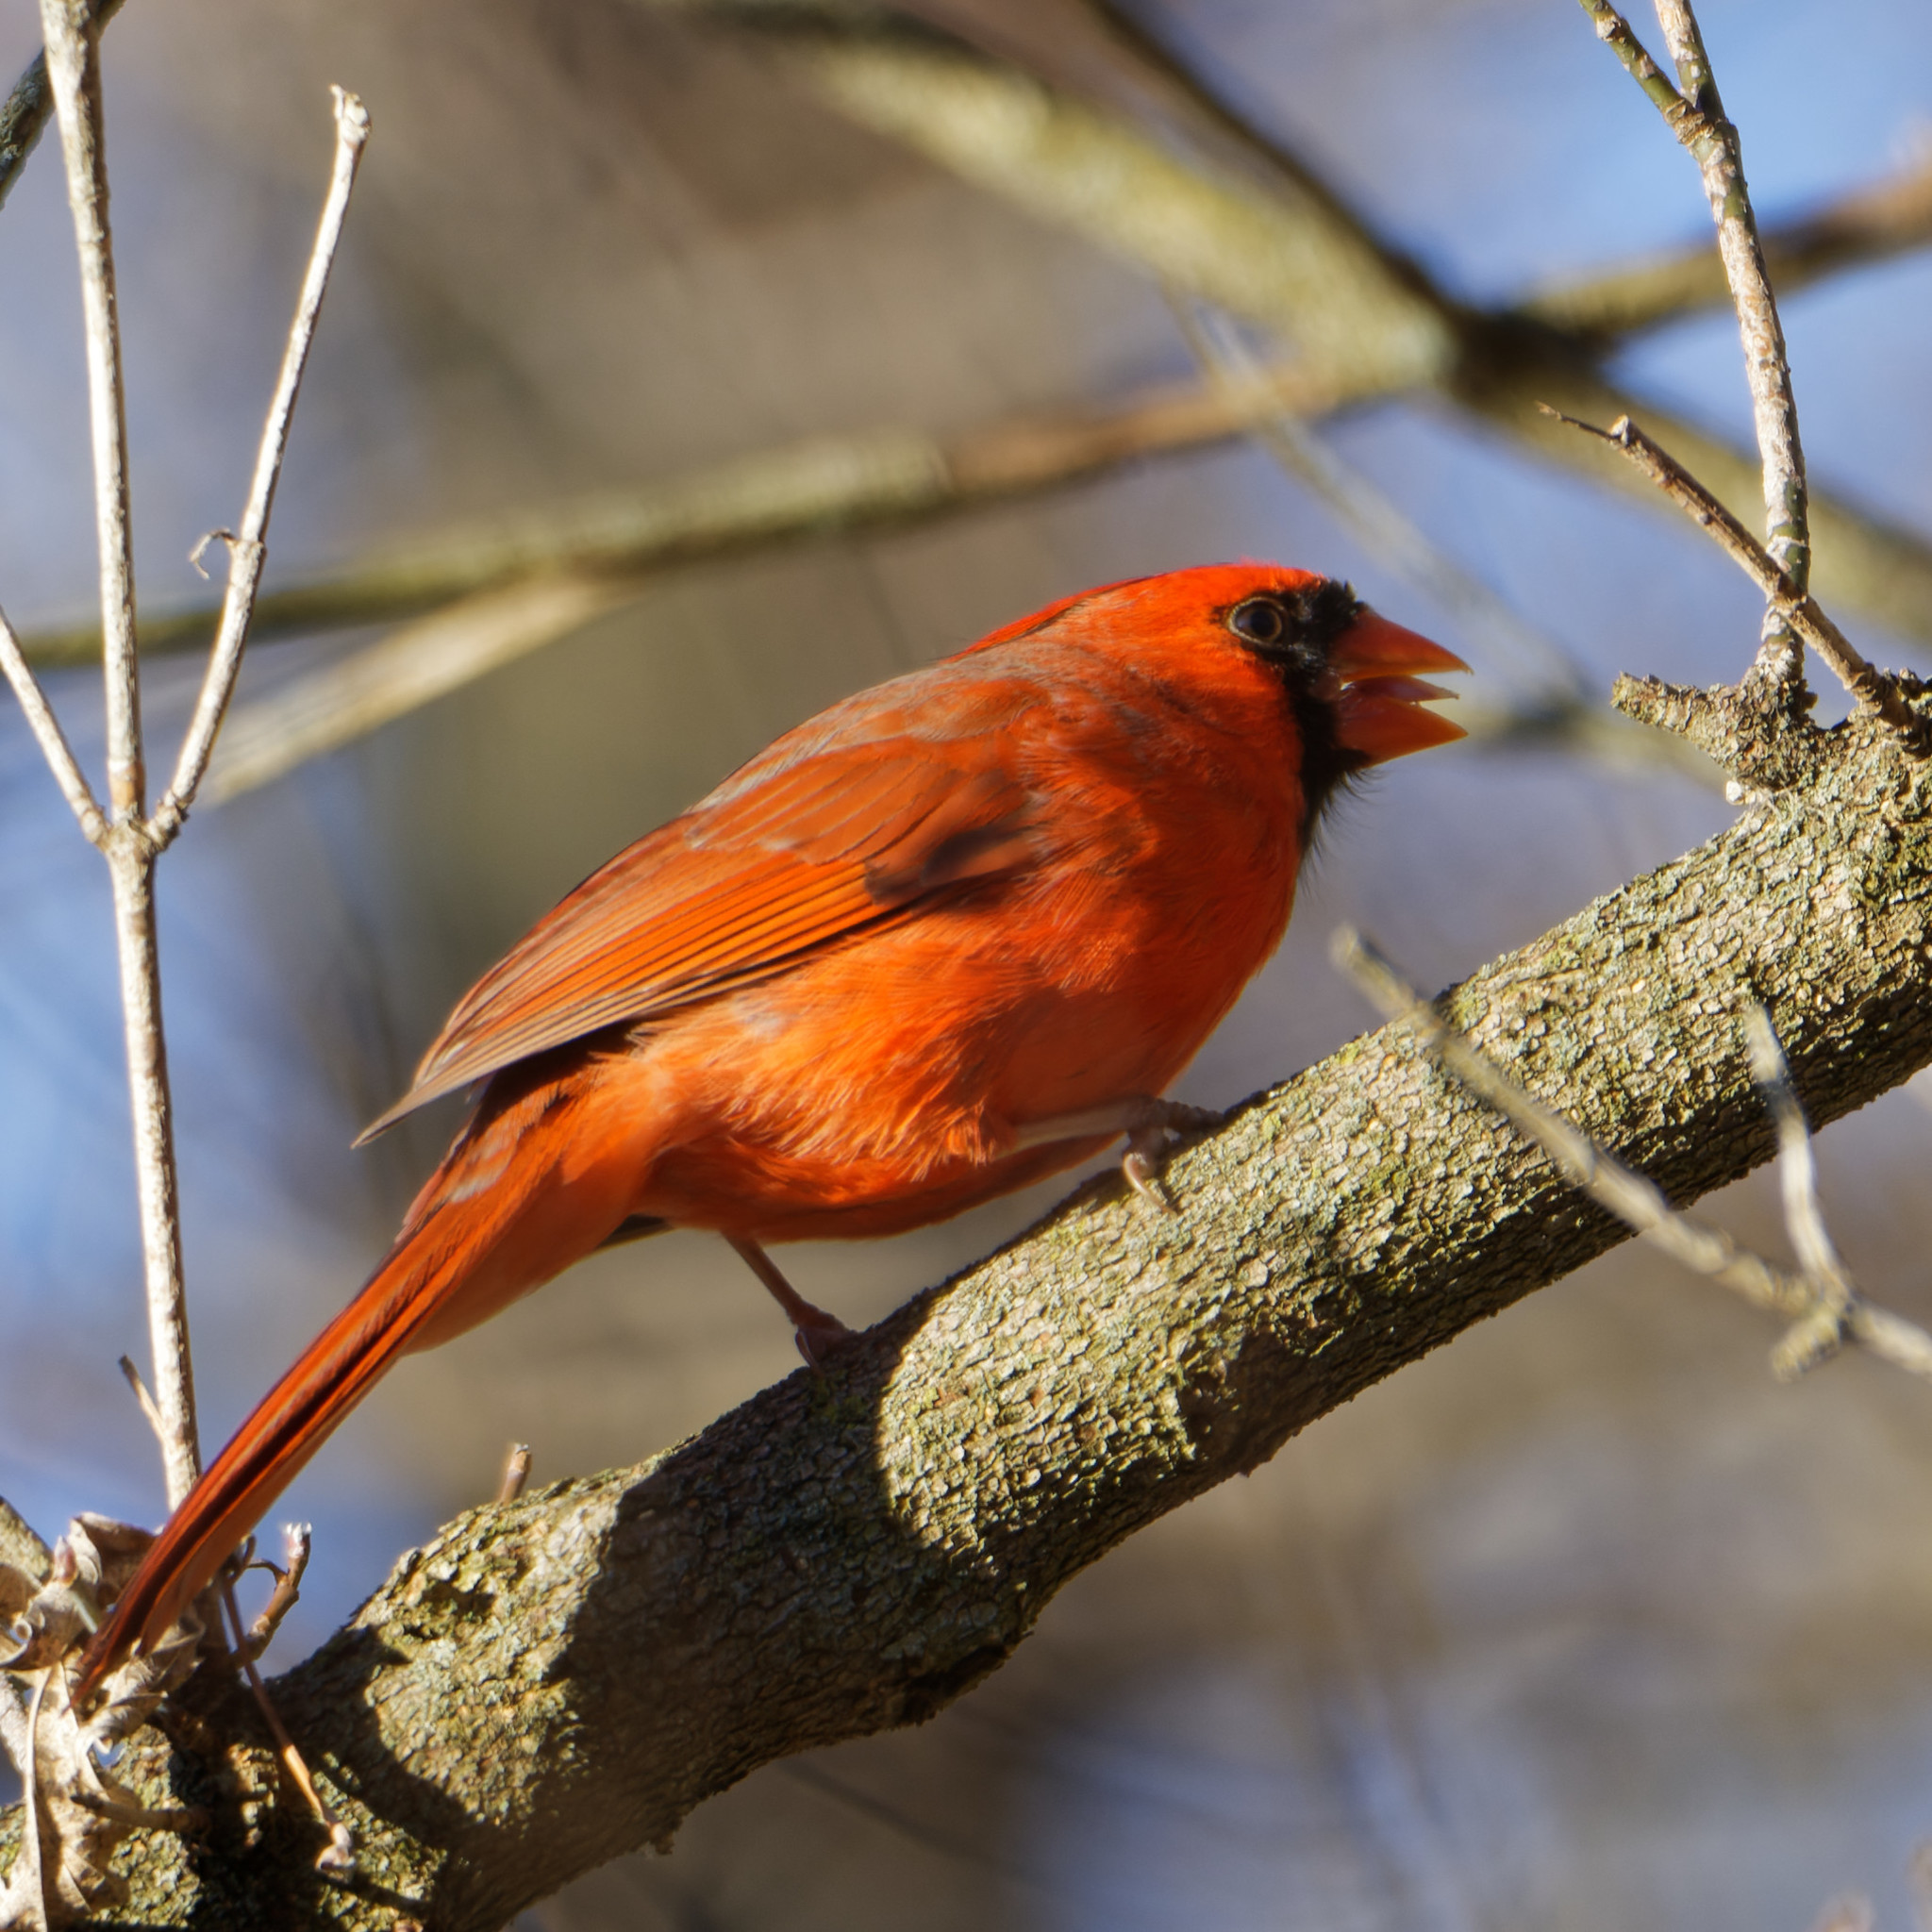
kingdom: Animalia
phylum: Chordata
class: Aves
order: Passeriformes
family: Cardinalidae
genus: Cardinalis
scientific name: Cardinalis cardinalis
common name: Northern cardinal
